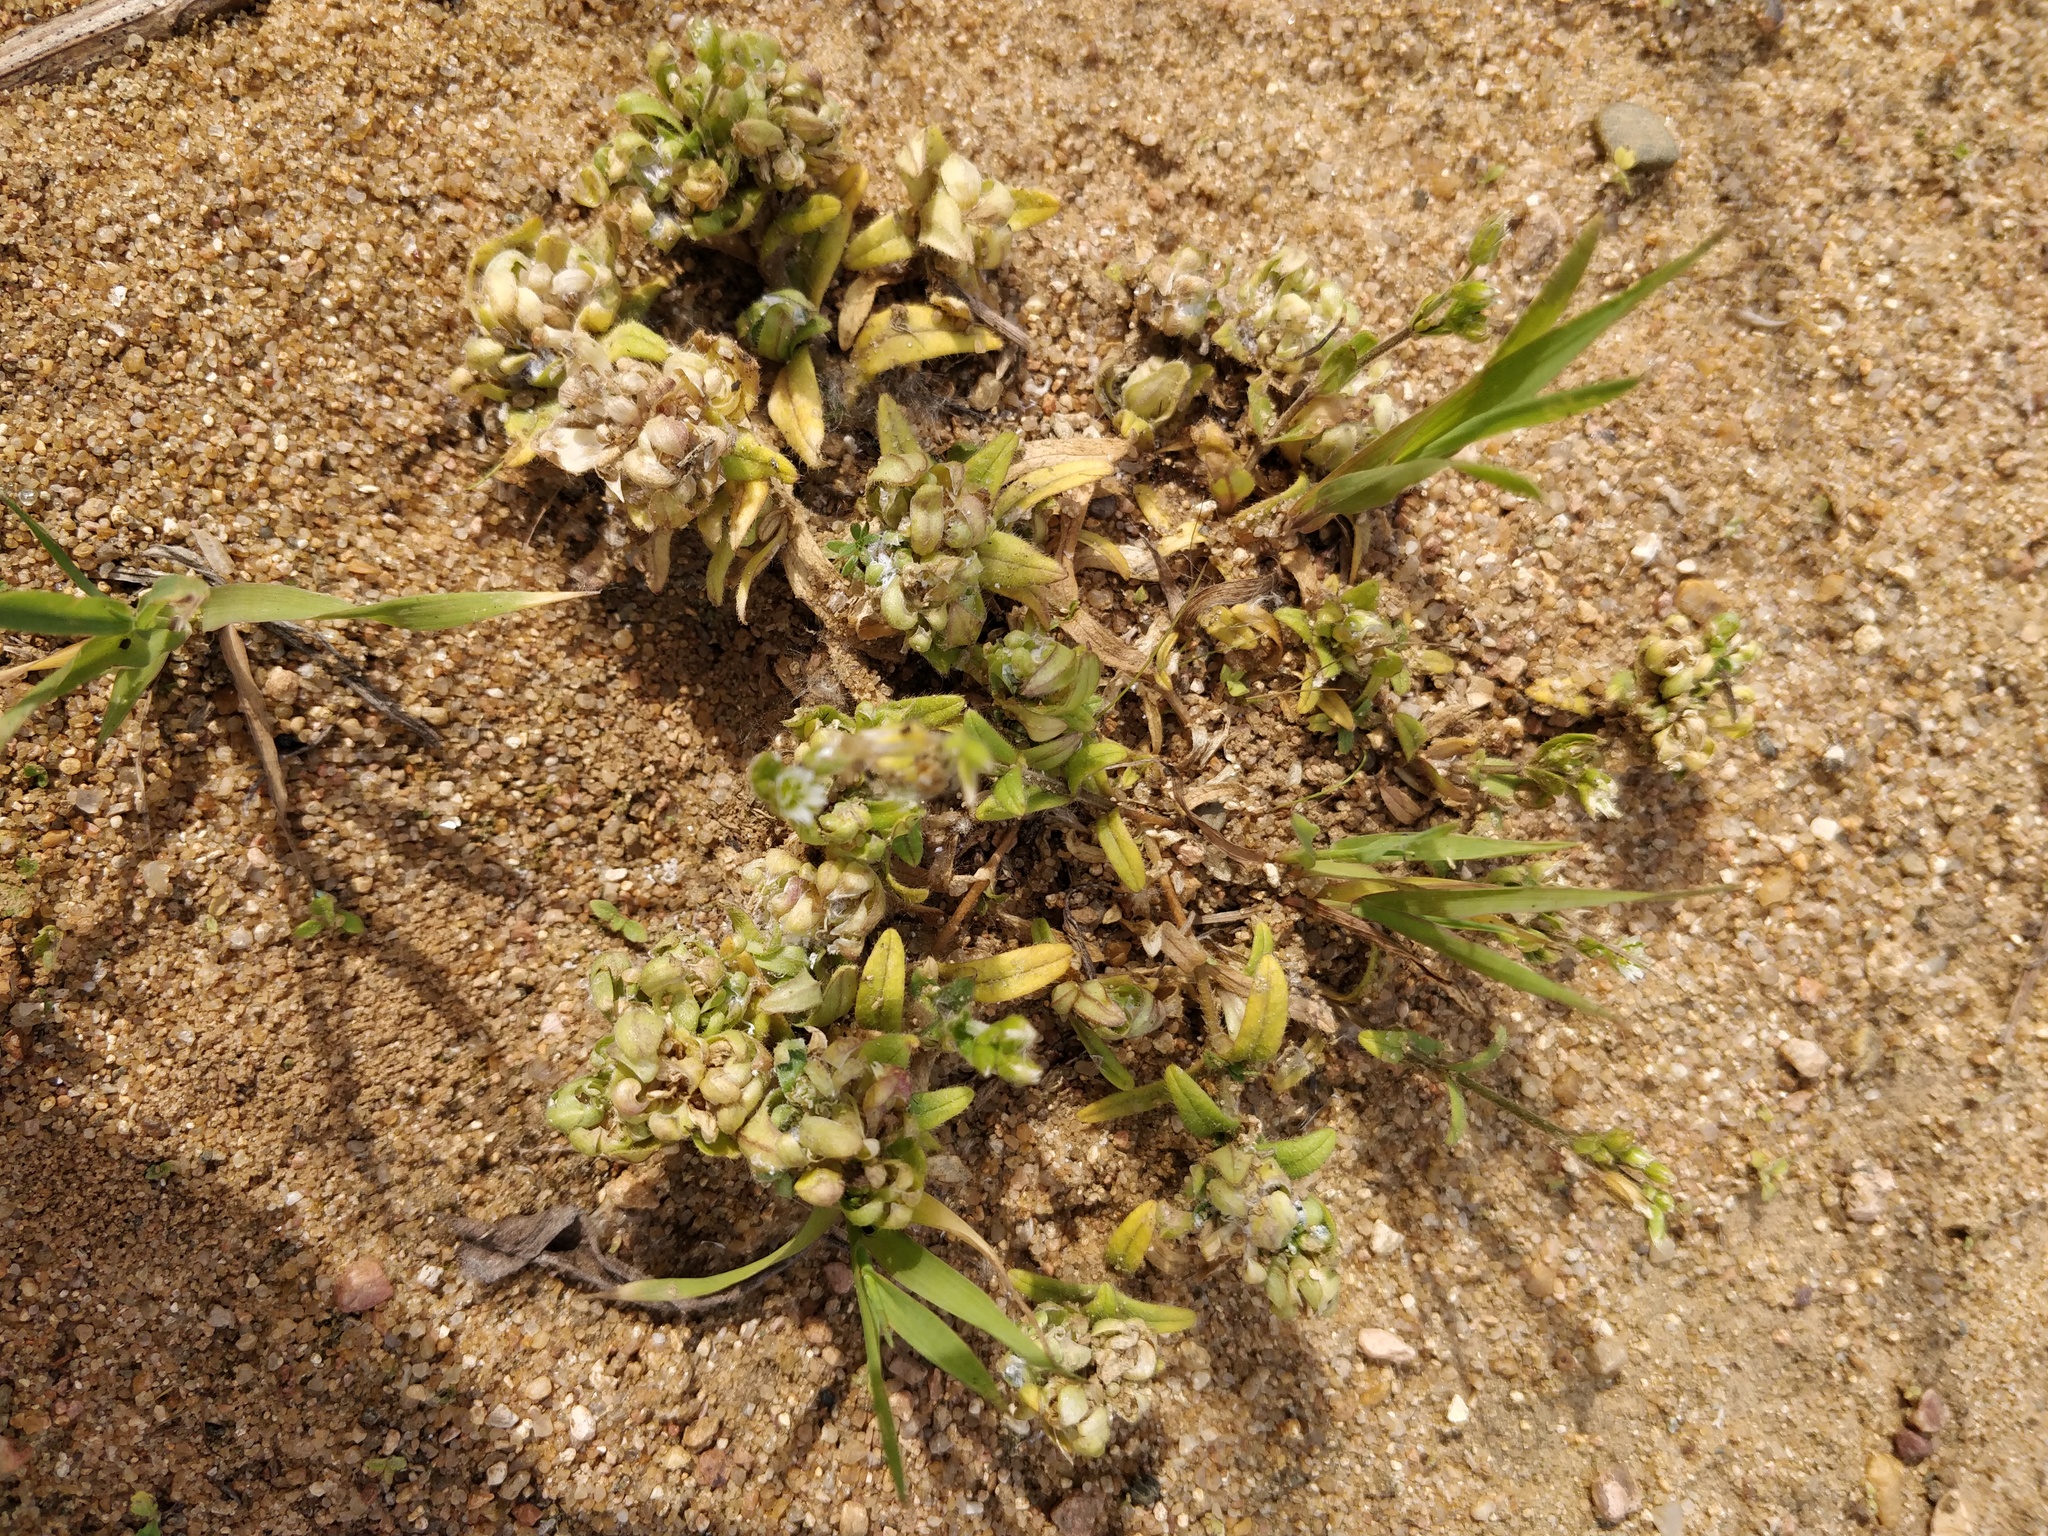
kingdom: Plantae
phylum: Tracheophyta
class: Magnoliopsida
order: Caryophyllales
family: Caryophyllaceae
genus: Cerastium
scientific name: Cerastium holosteoides
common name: Big chickweed
